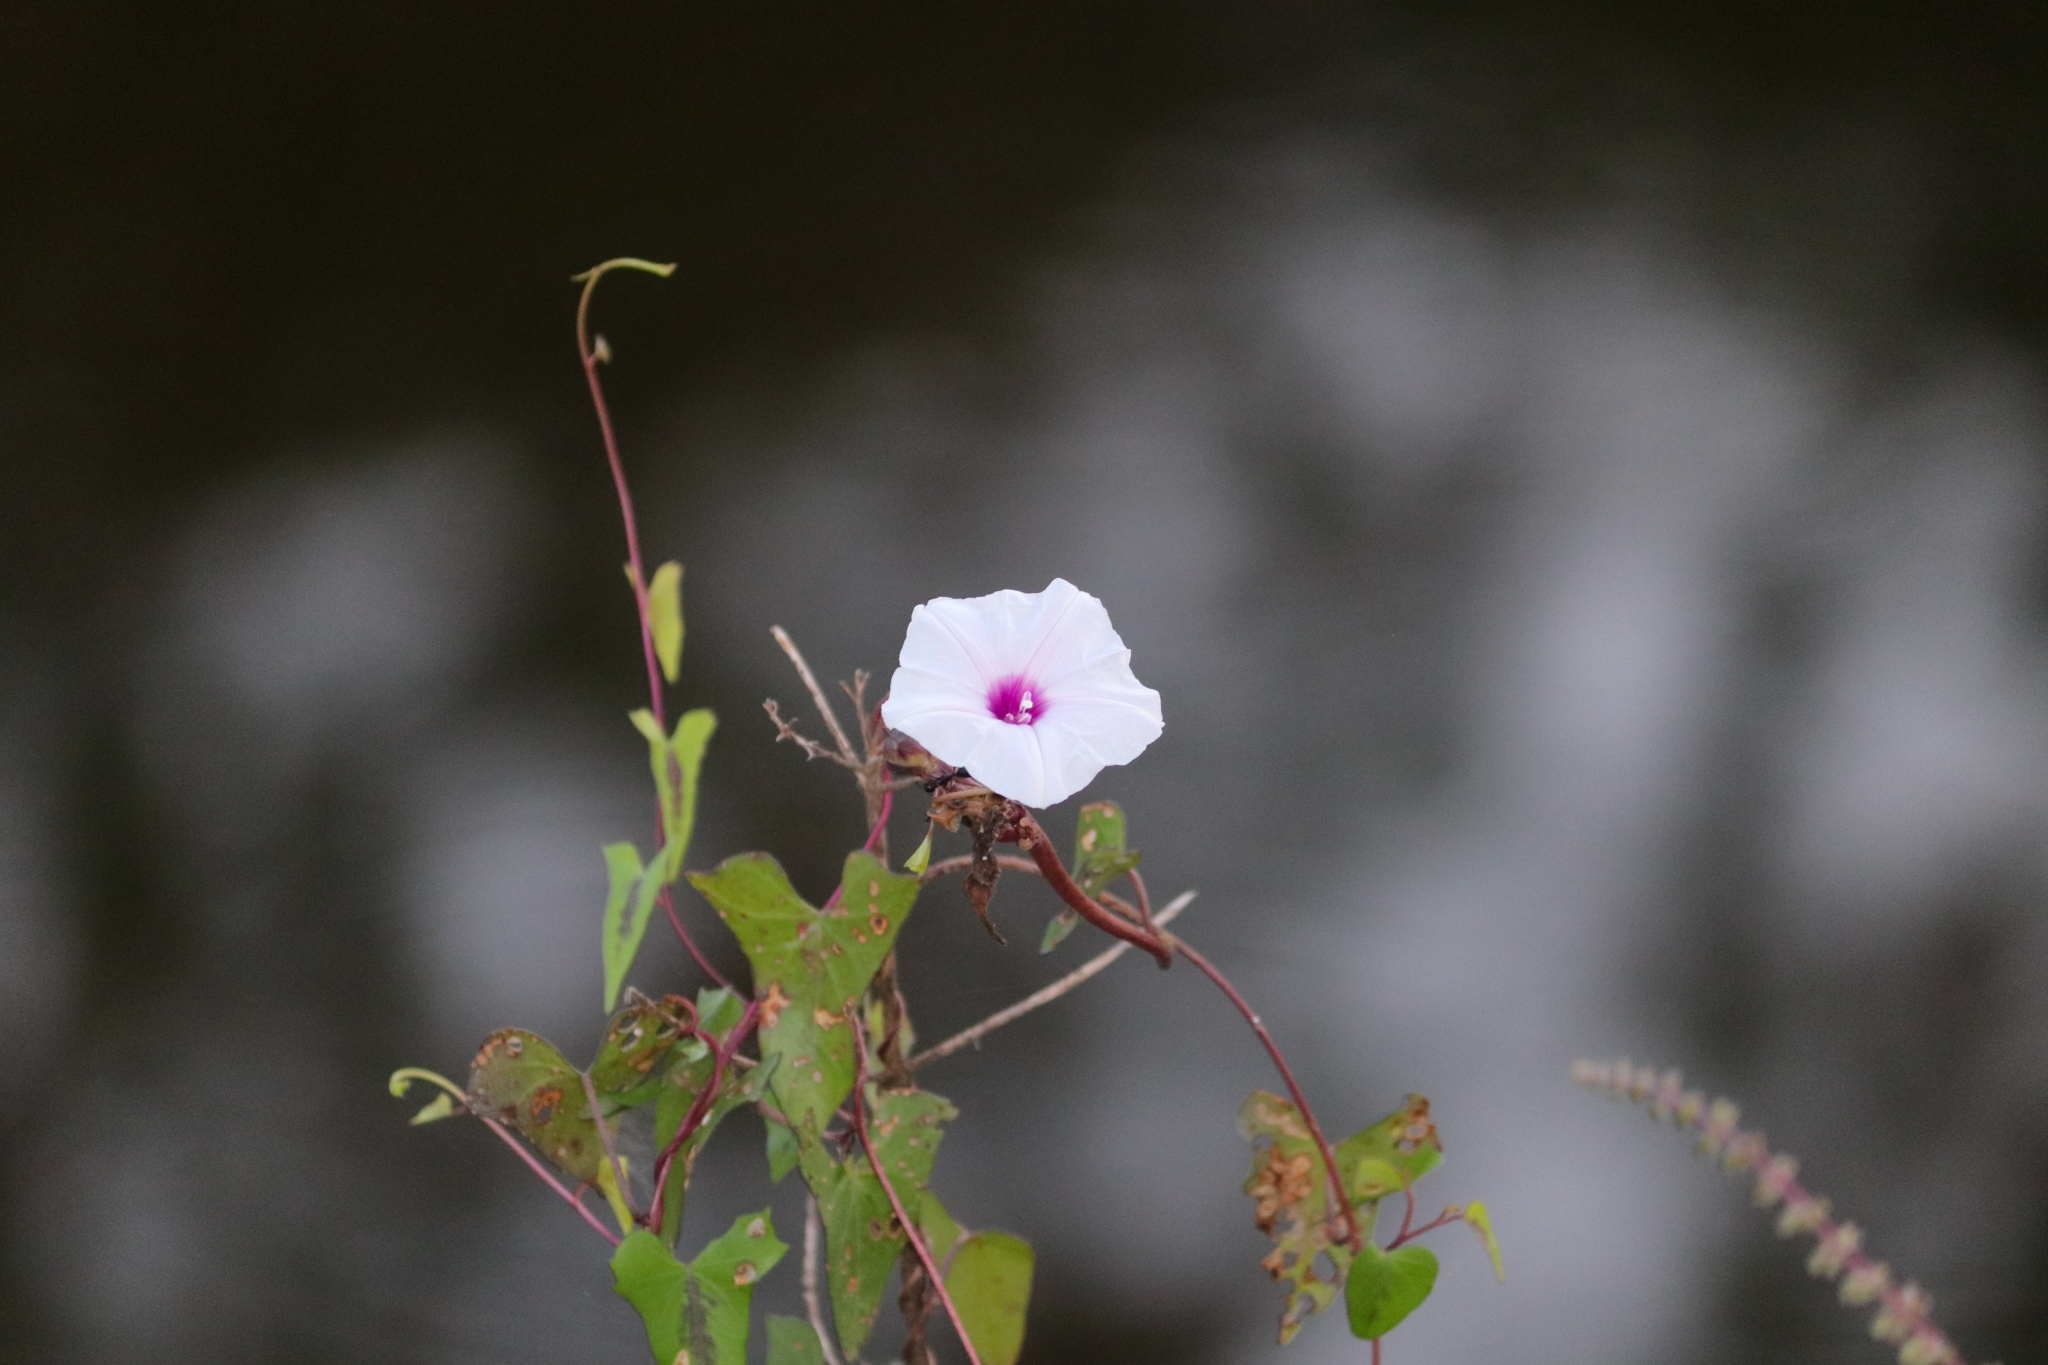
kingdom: Plantae
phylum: Tracheophyta
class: Magnoliopsida
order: Solanales
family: Convolvulaceae
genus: Ipomoea
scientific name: Ipomoea sagittifolia
